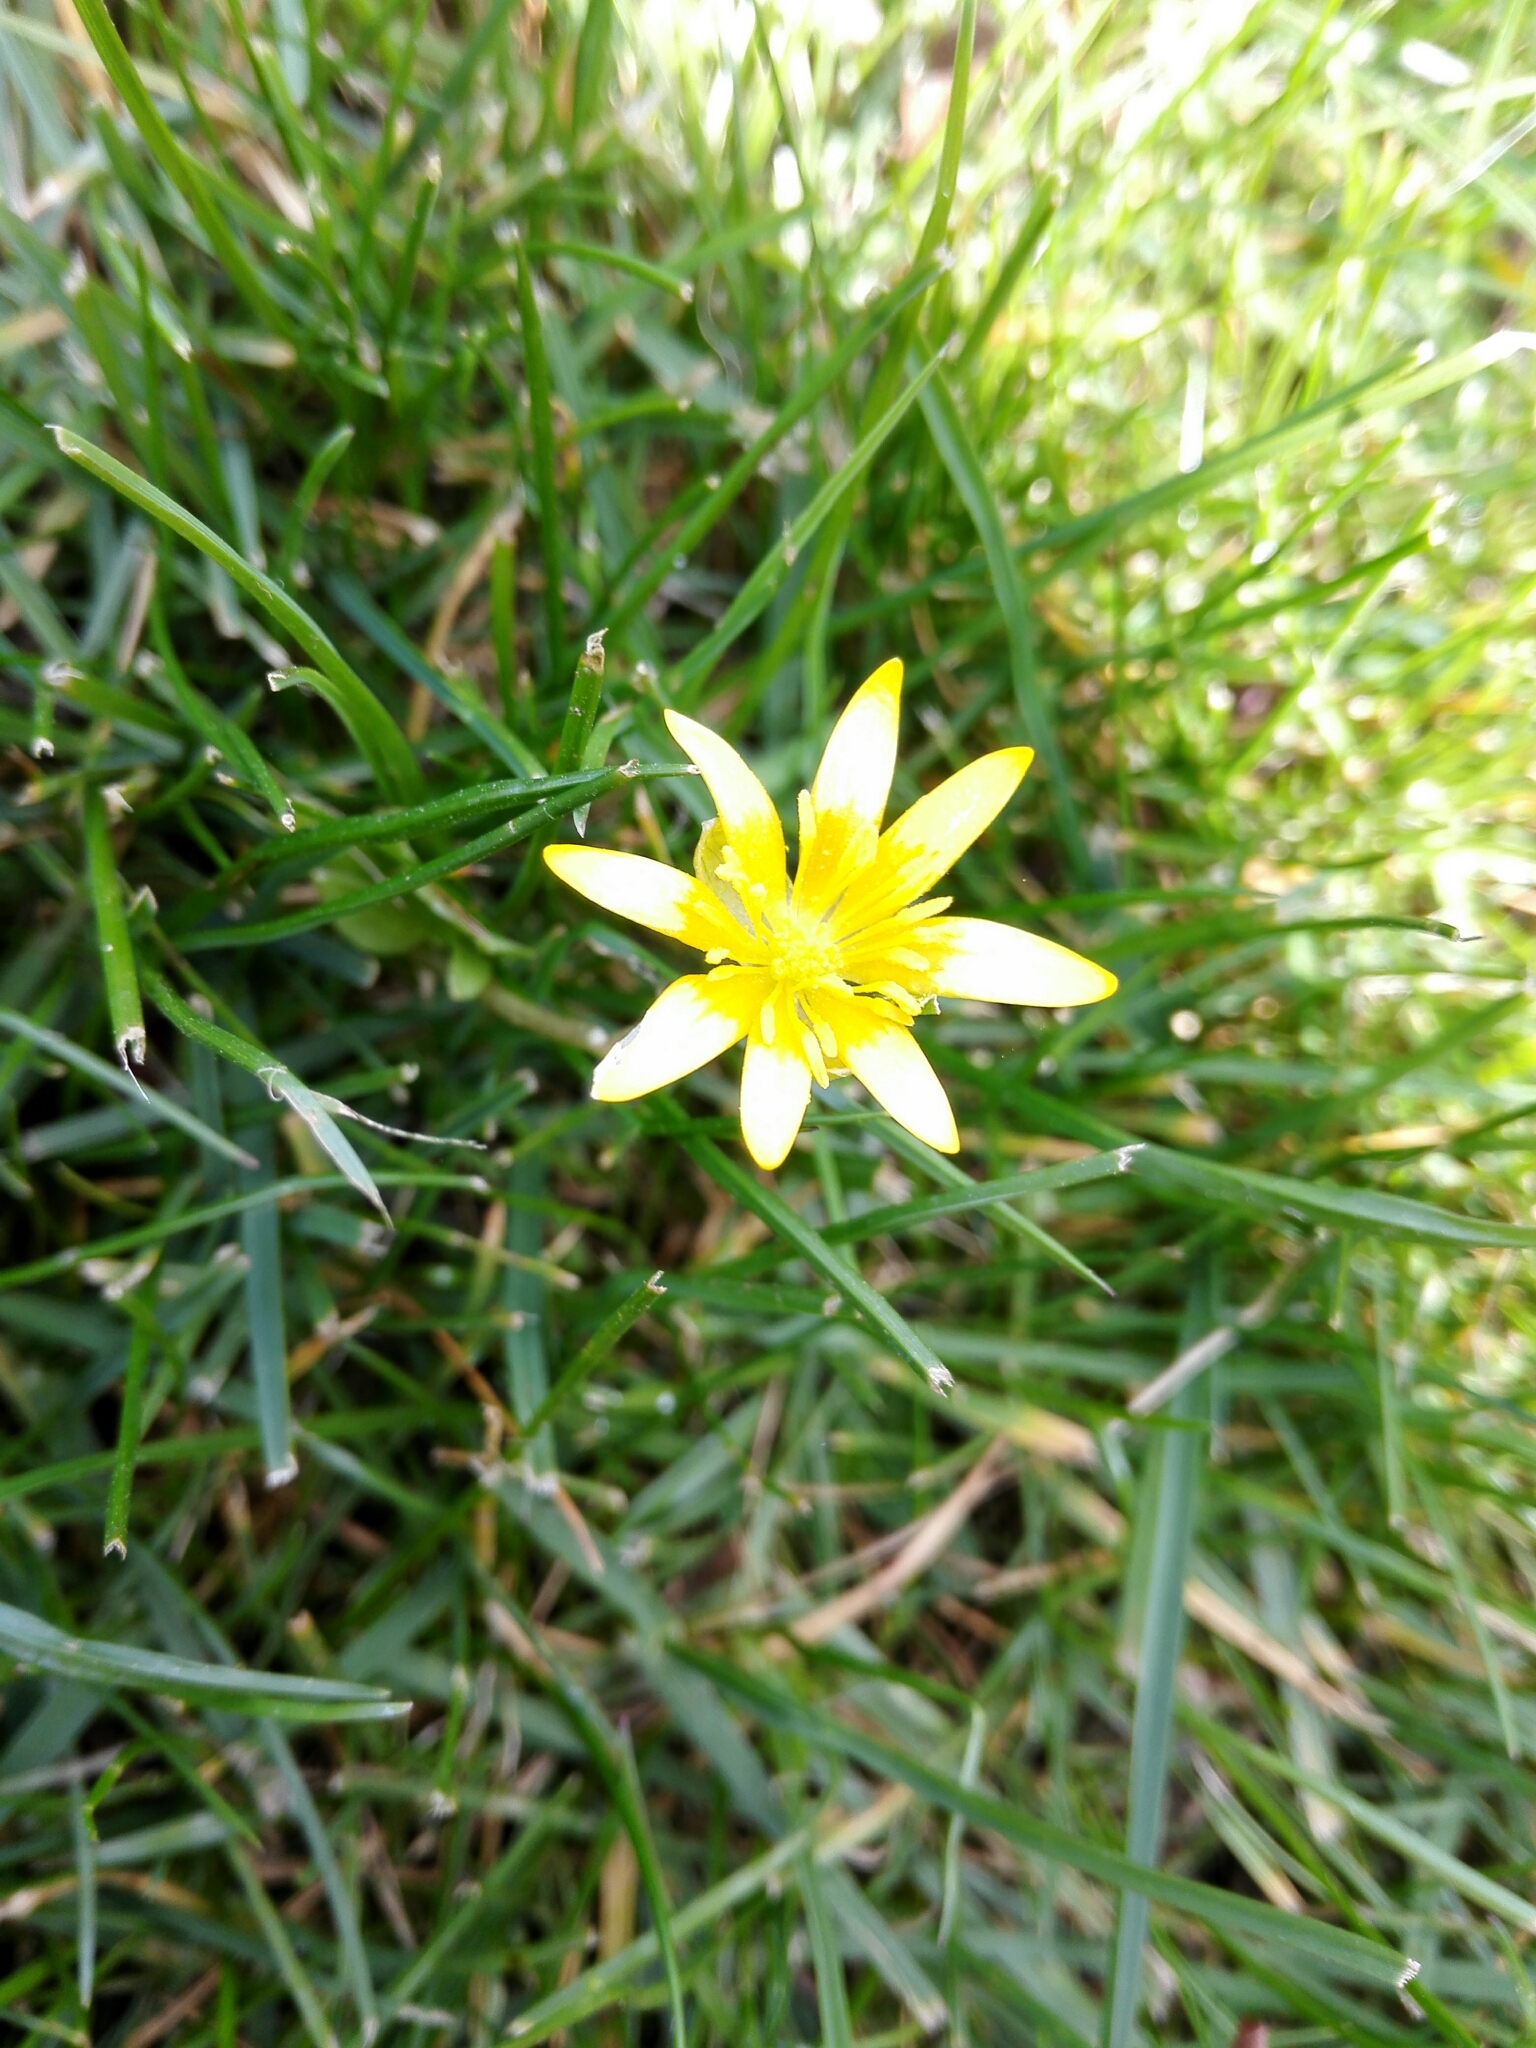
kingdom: Plantae
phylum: Tracheophyta
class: Magnoliopsida
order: Ranunculales
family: Ranunculaceae
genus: Ficaria
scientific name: Ficaria verna
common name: Lesser celandine
